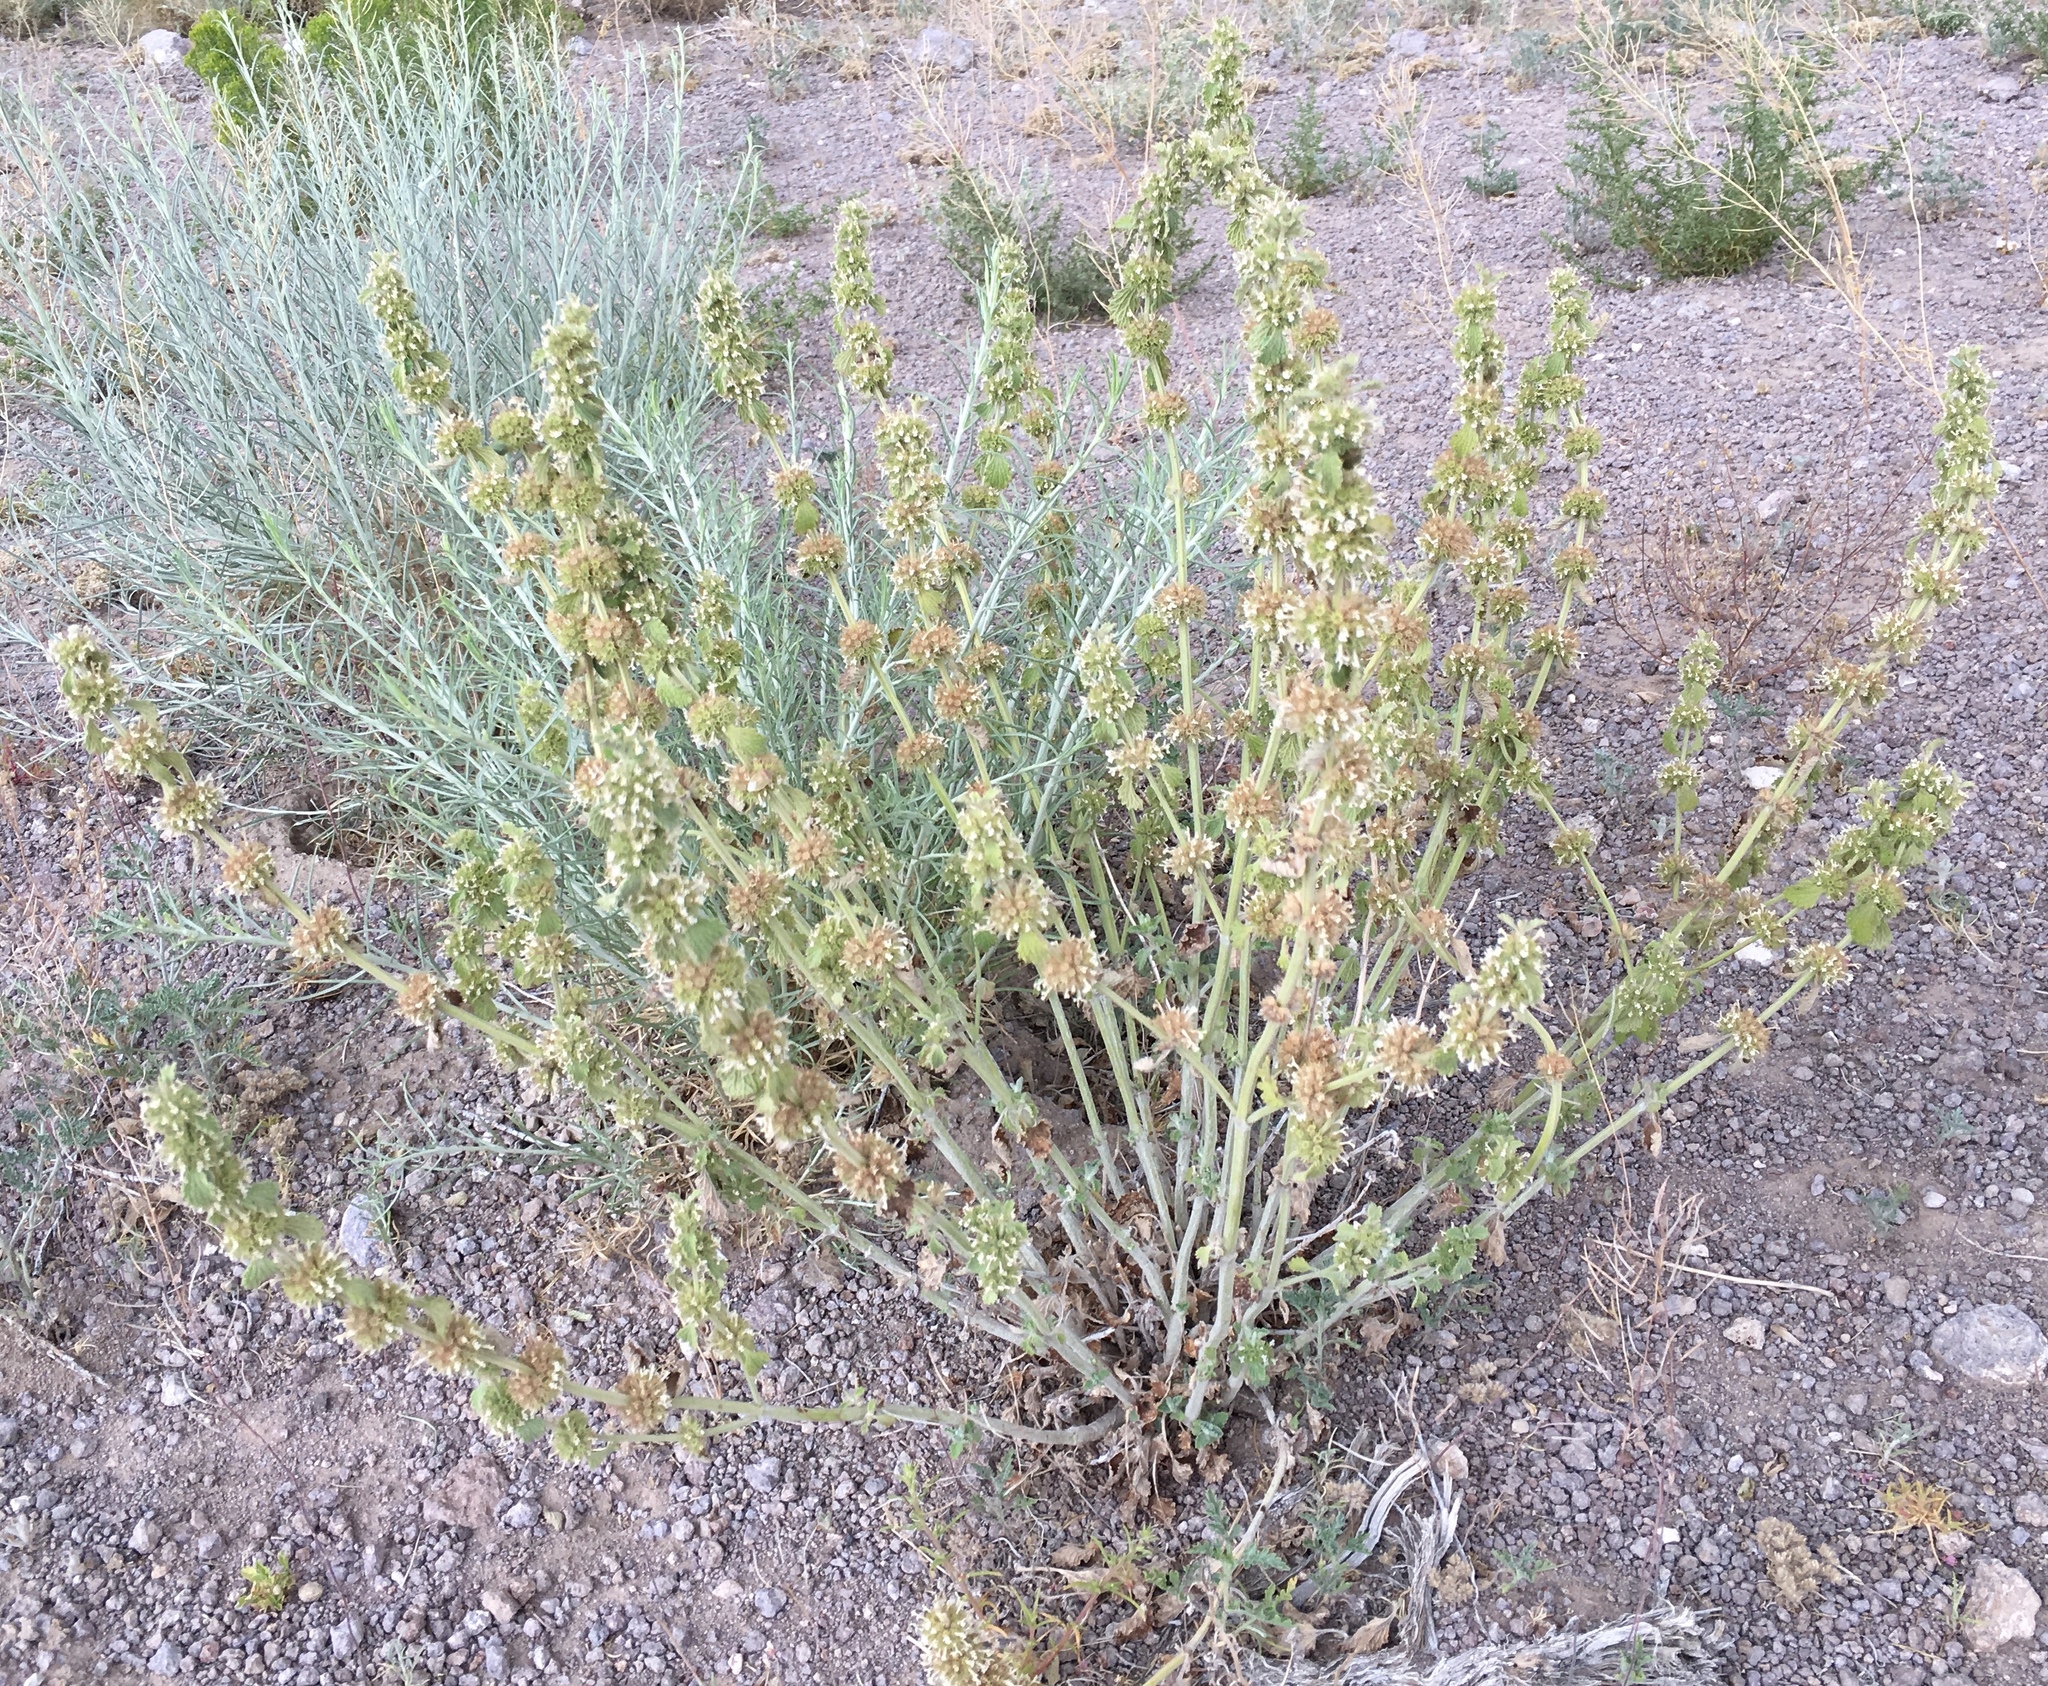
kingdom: Plantae
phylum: Tracheophyta
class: Magnoliopsida
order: Lamiales
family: Lamiaceae
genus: Marrubium
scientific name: Marrubium vulgare
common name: Horehound
